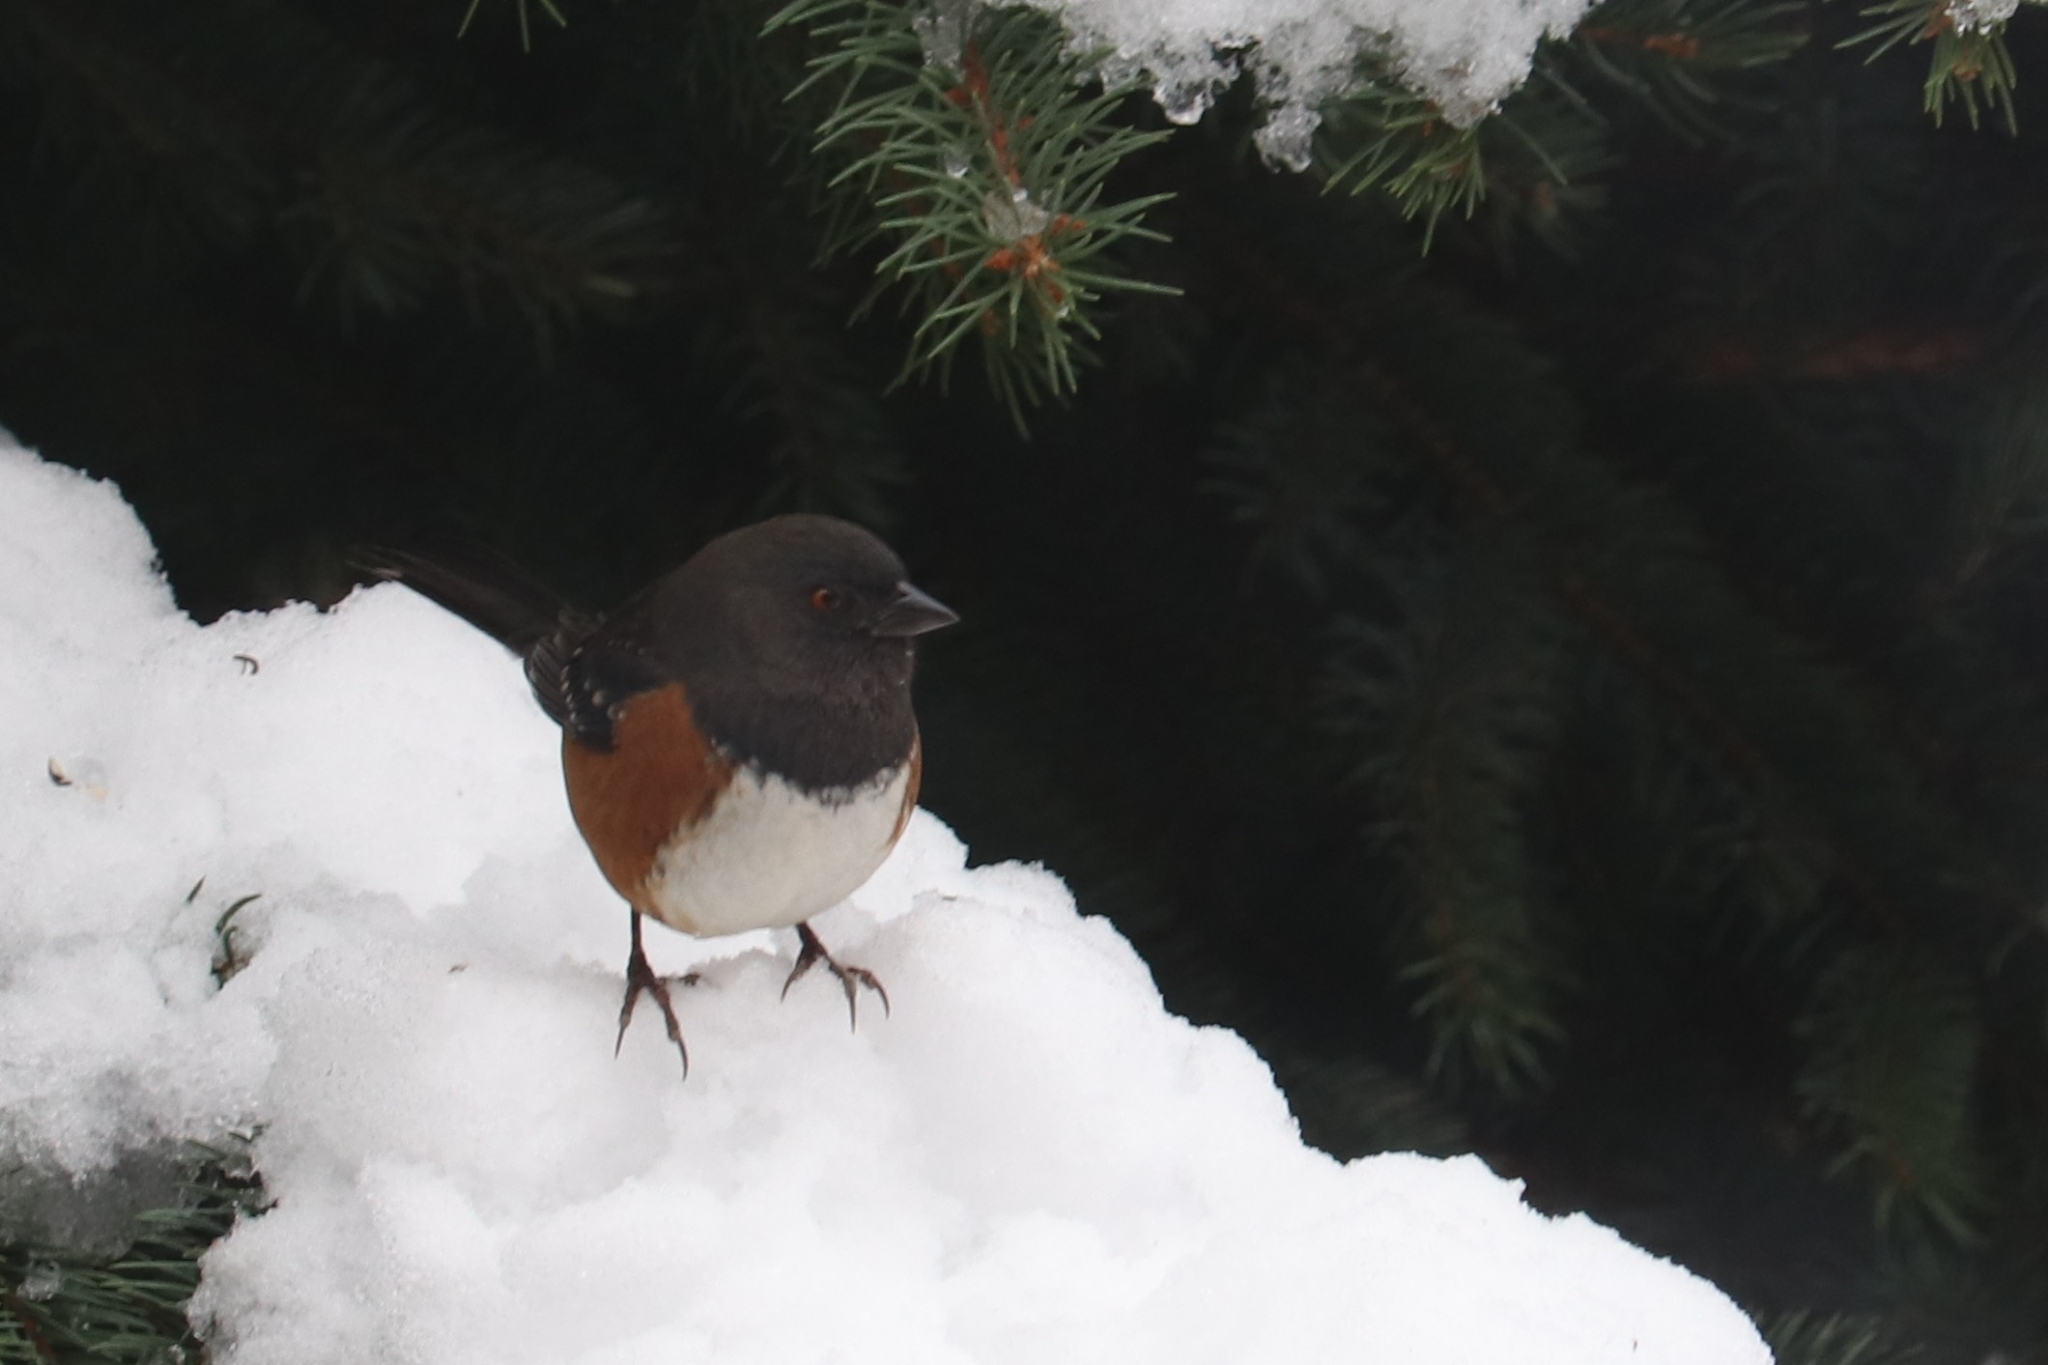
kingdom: Animalia
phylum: Chordata
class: Aves
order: Passeriformes
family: Passerellidae
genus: Pipilo
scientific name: Pipilo maculatus
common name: Spotted towhee
